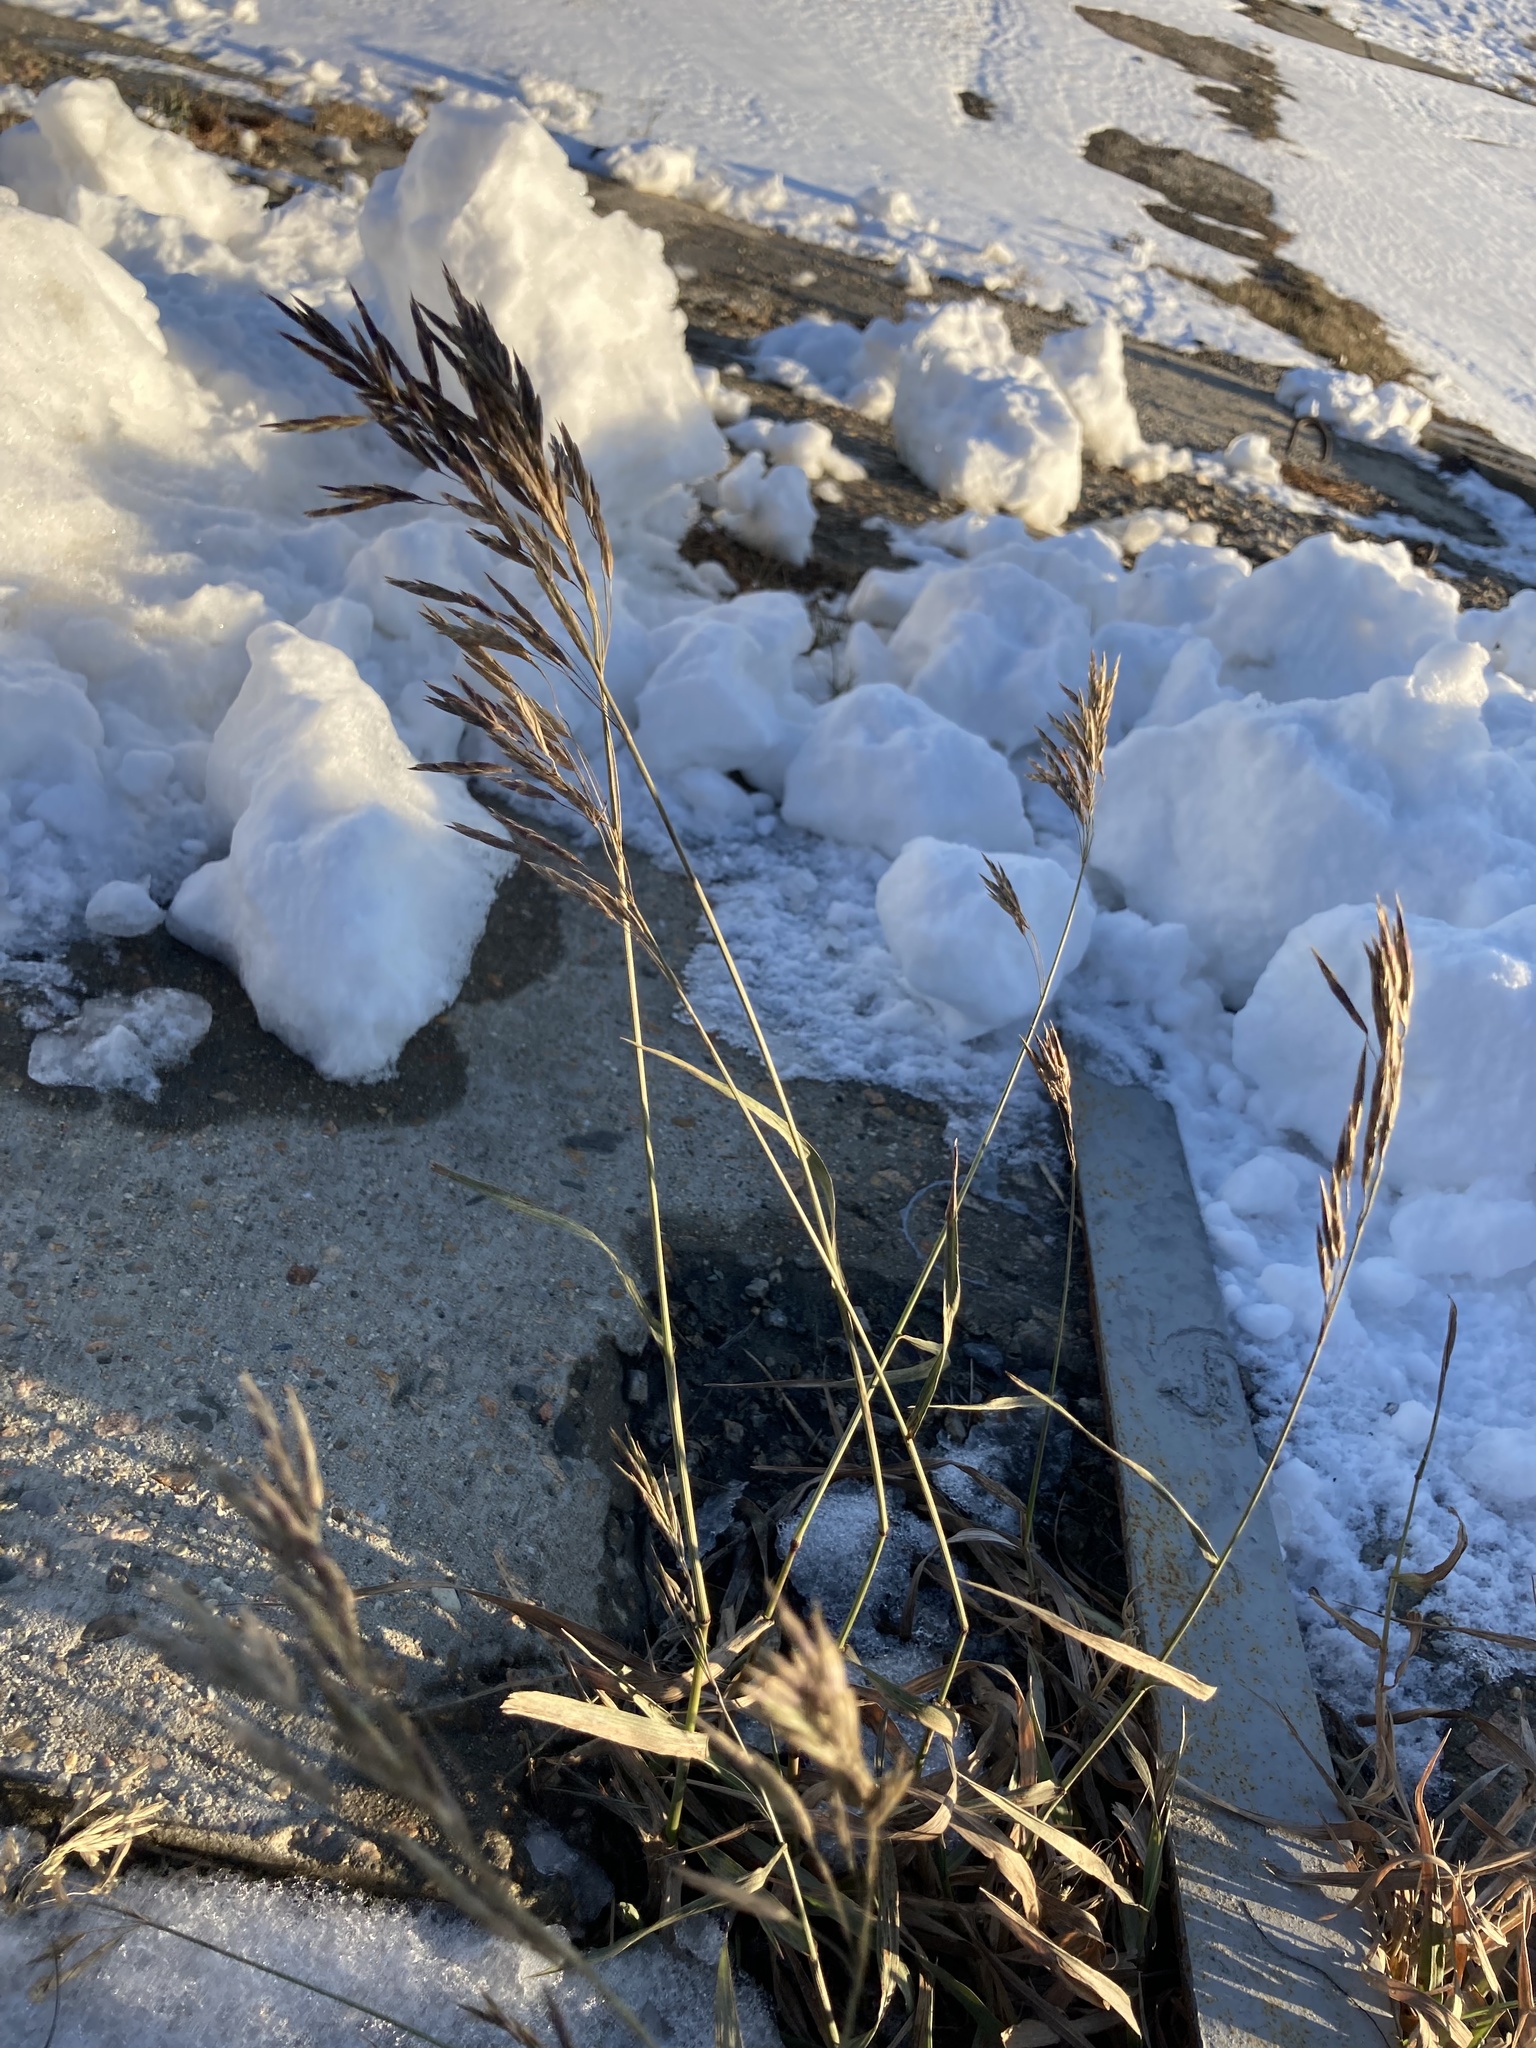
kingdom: Plantae
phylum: Tracheophyta
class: Liliopsida
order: Poales
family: Poaceae
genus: Bromus
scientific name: Bromus inermis
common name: Smooth brome
